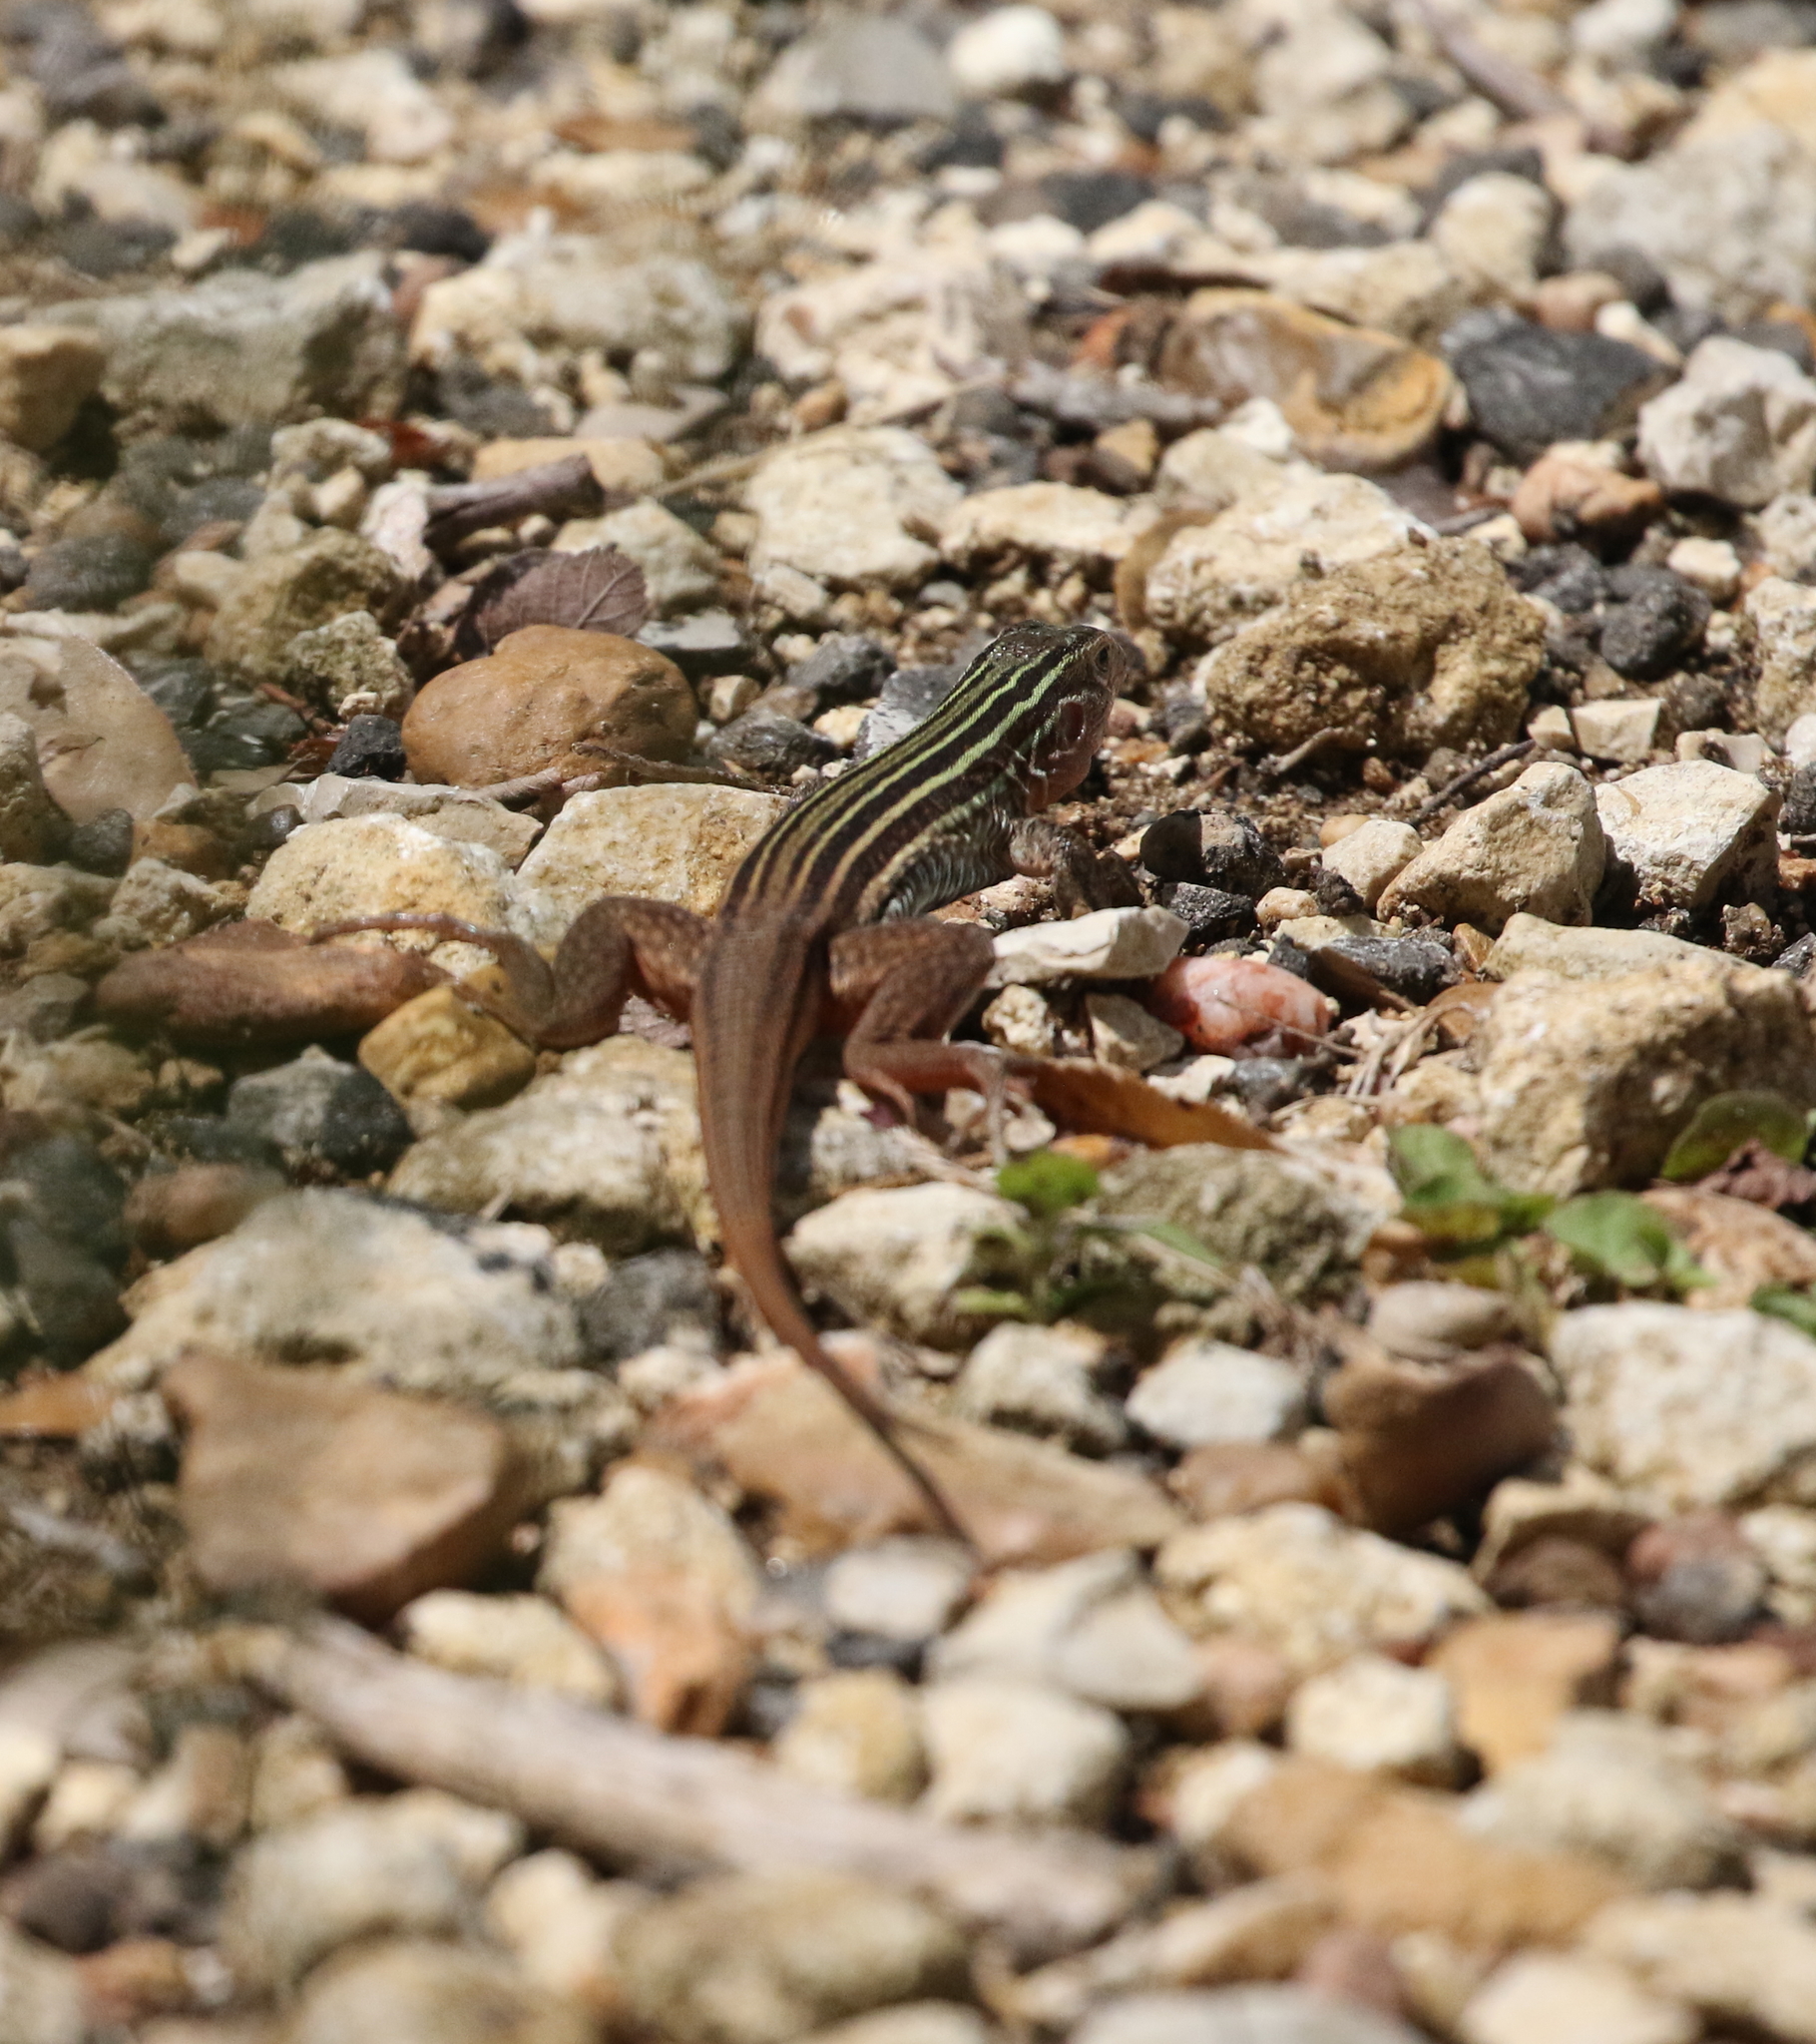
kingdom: Animalia
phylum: Chordata
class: Squamata
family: Teiidae
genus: Aspidoscelis
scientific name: Aspidoscelis gularis
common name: Eastern spotted whiptail
